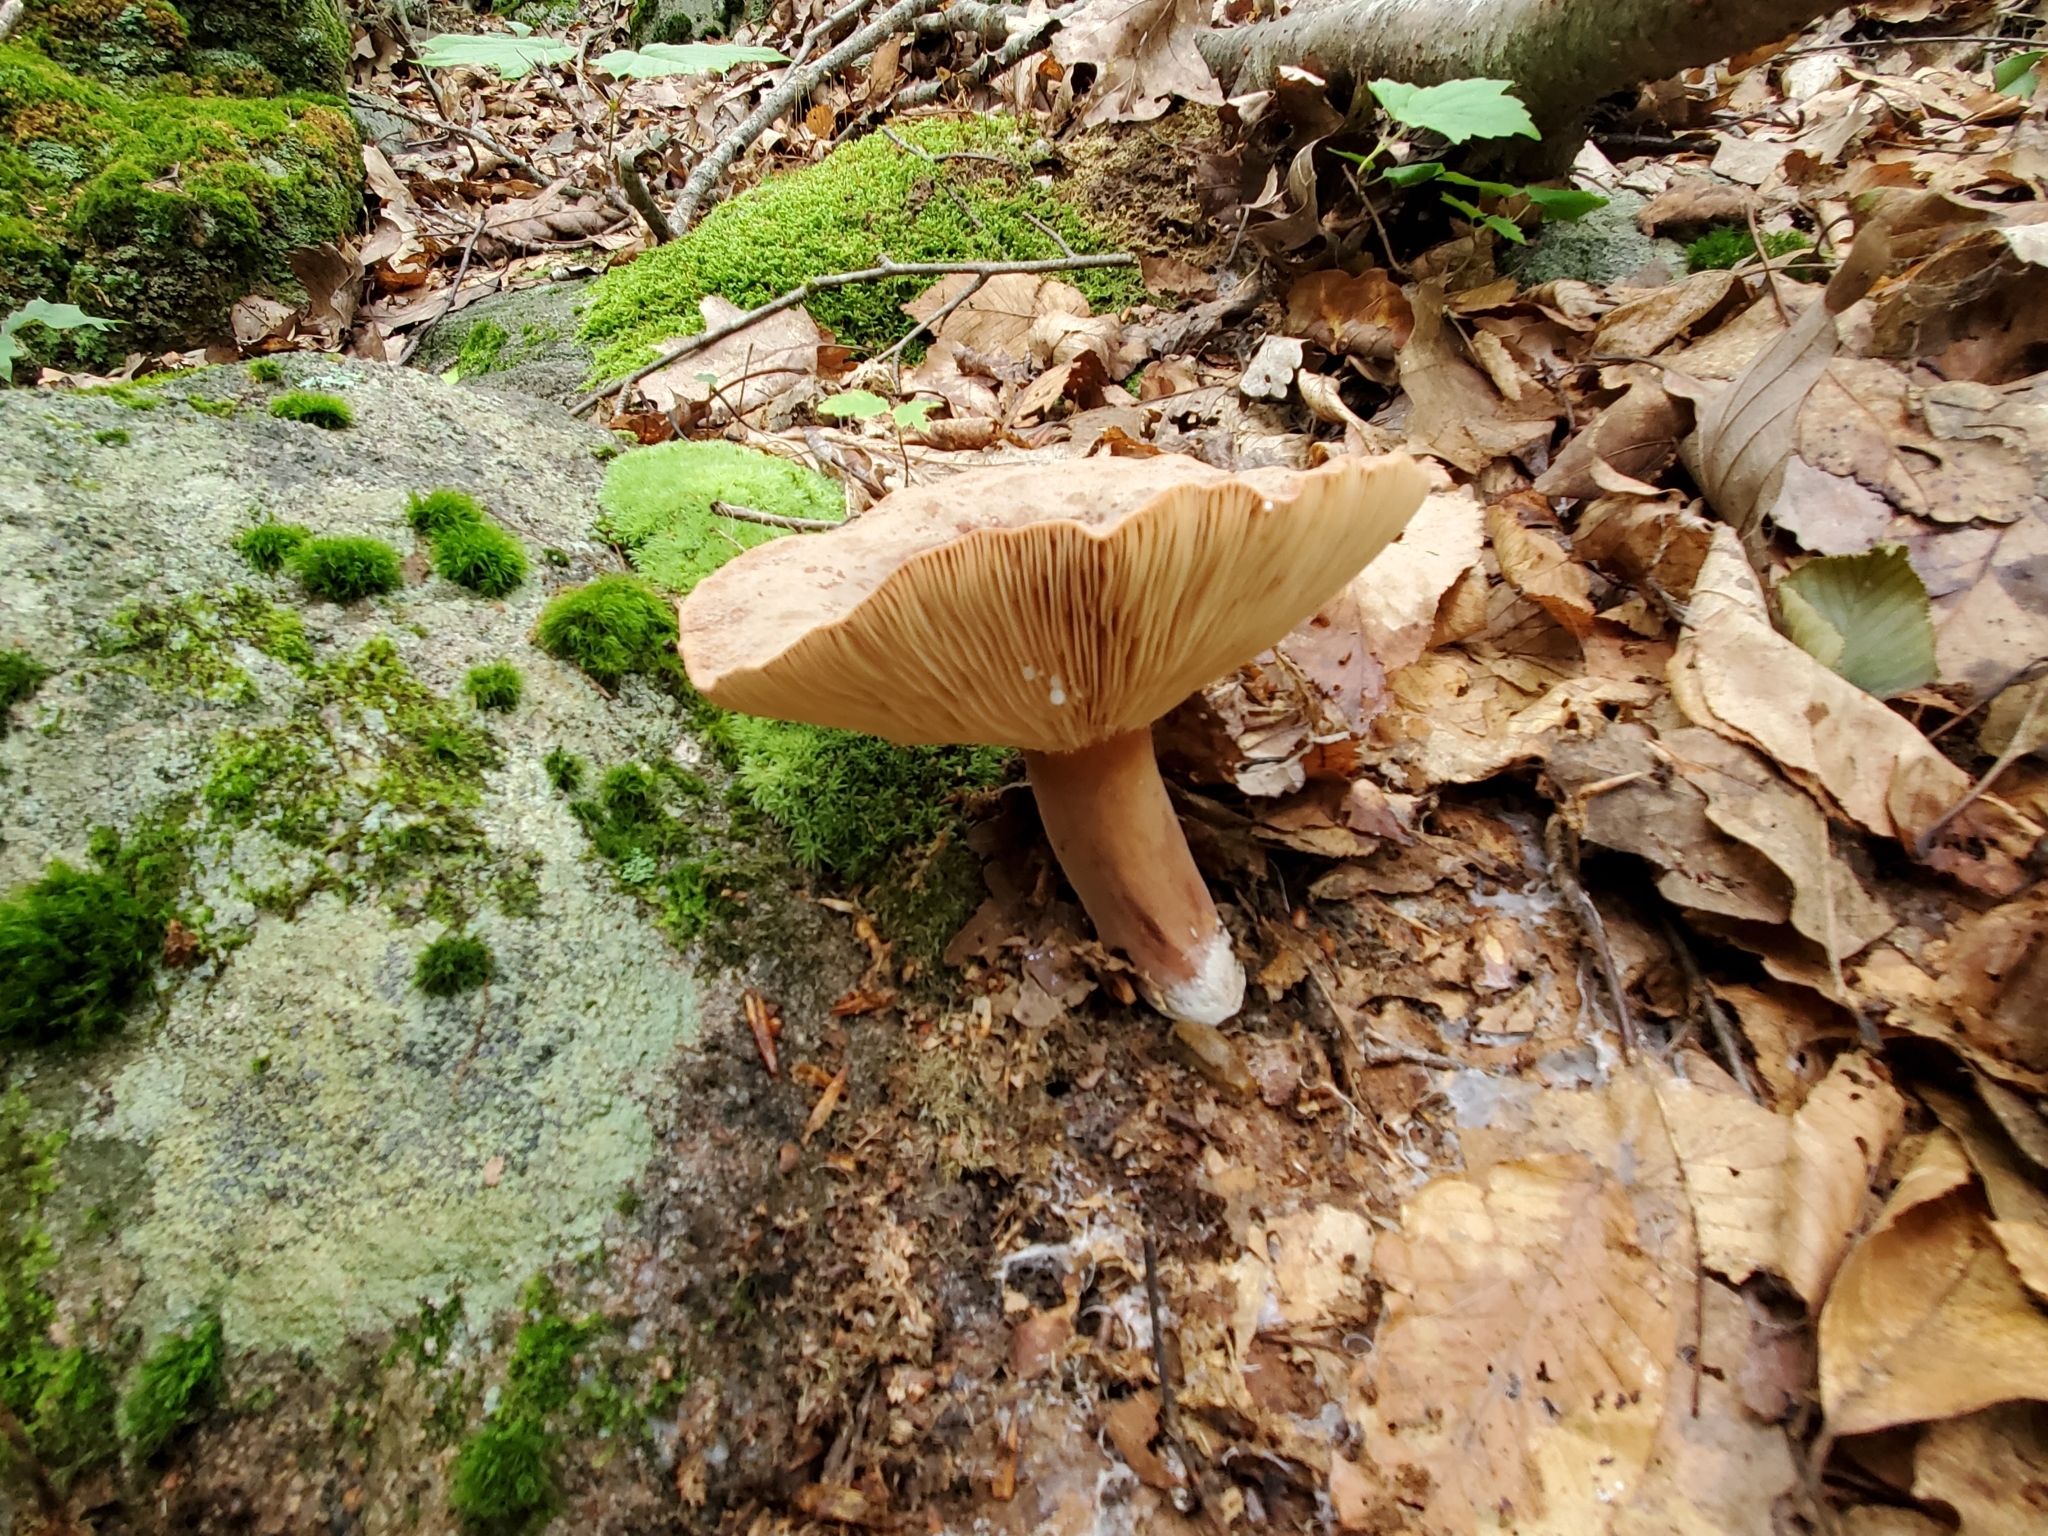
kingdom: Fungi
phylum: Basidiomycota
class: Agaricomycetes
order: Russulales
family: Russulaceae
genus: Lactarius
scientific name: Lactarius corrugis
